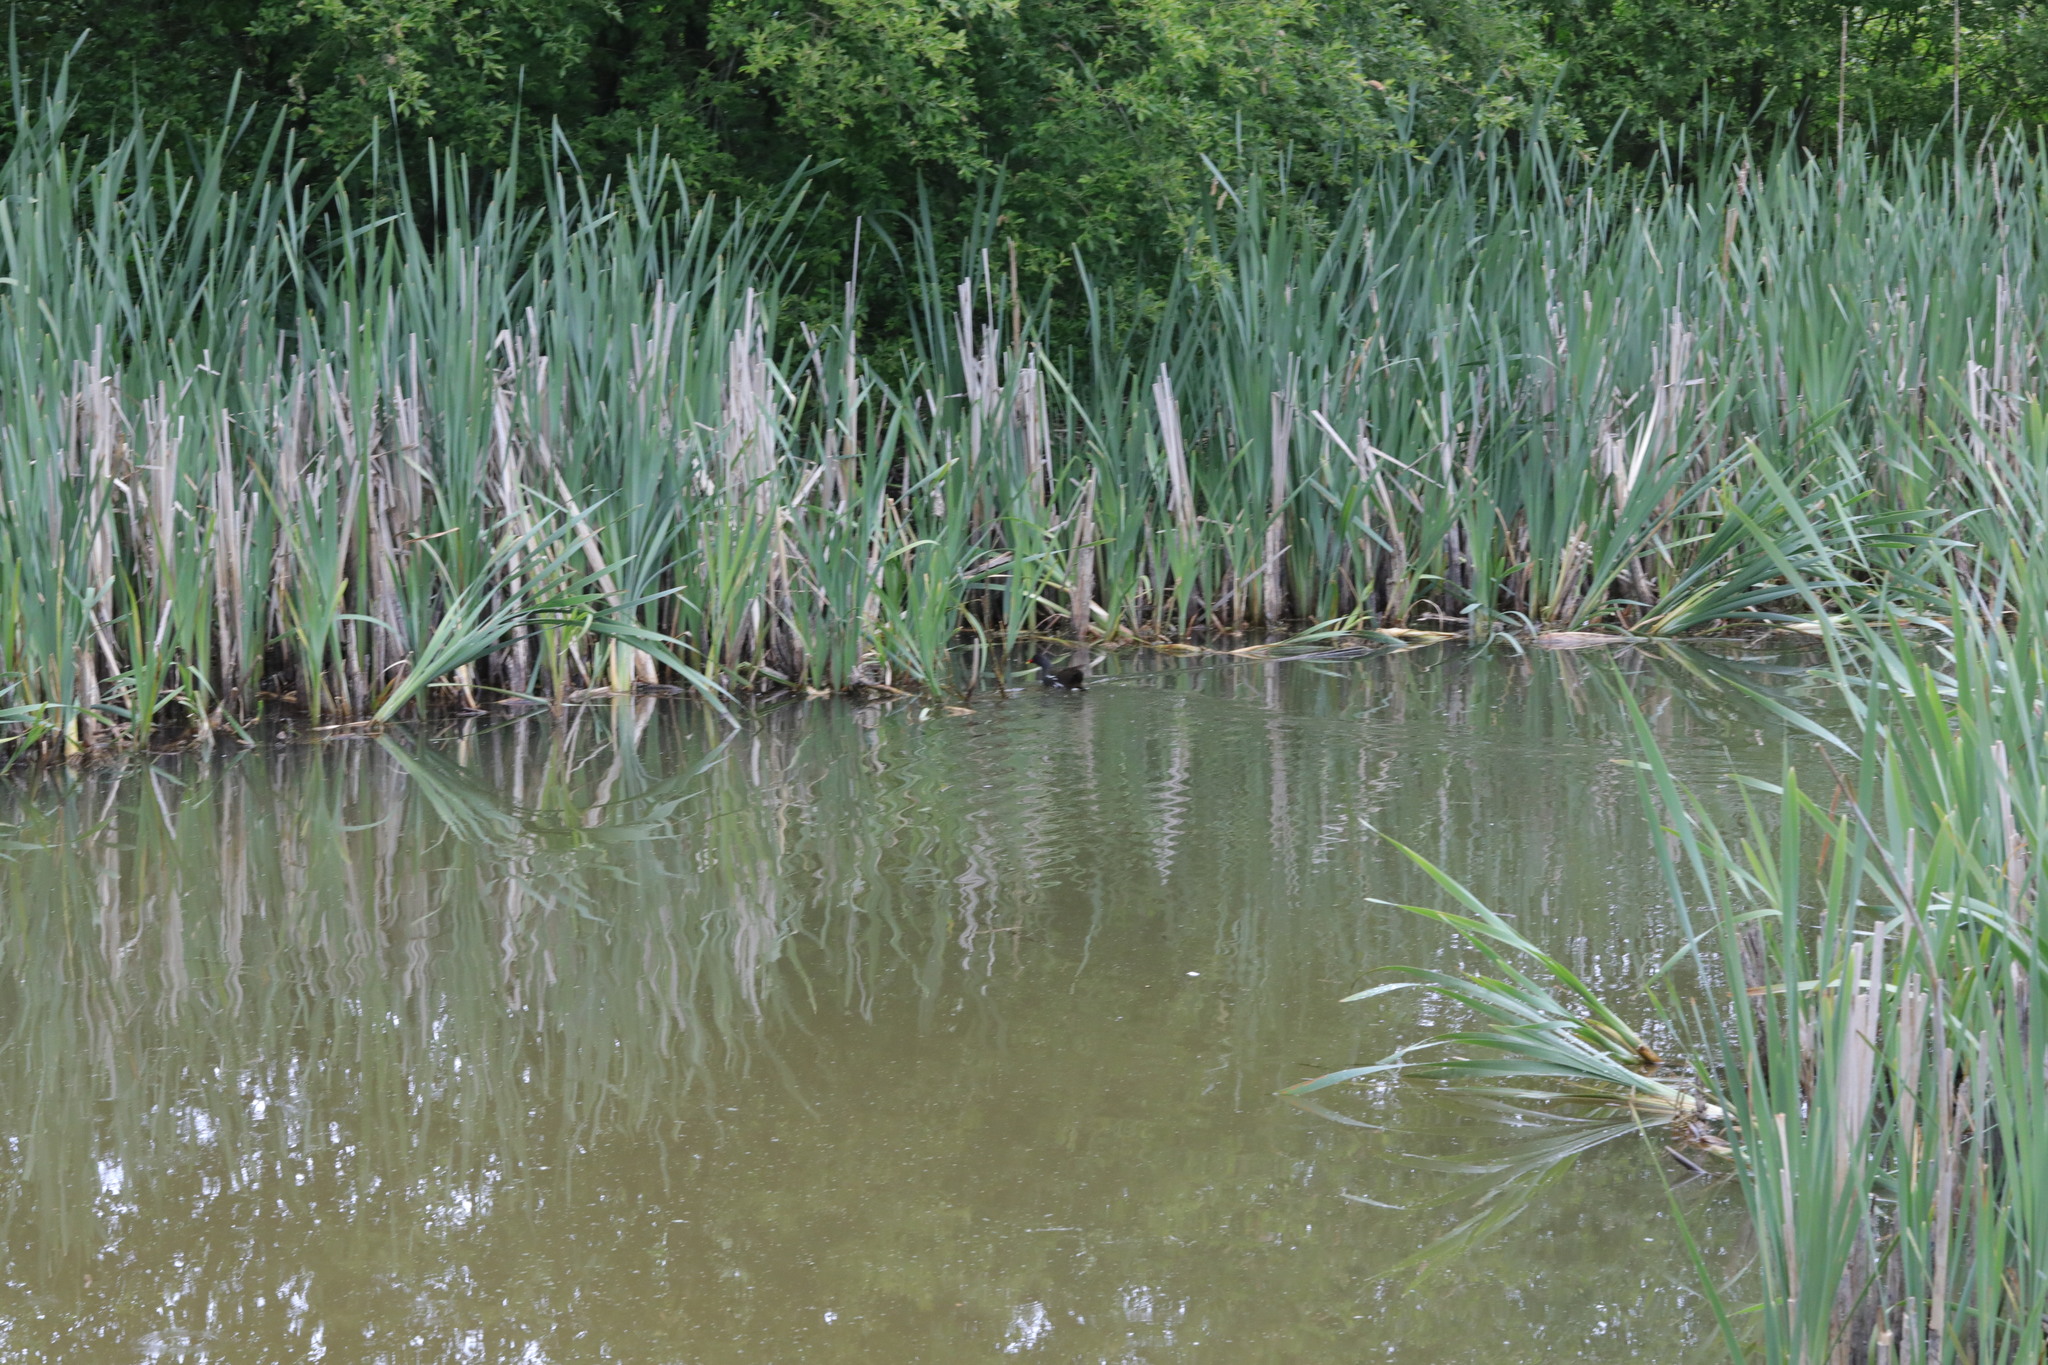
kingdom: Animalia
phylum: Chordata
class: Aves
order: Gruiformes
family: Rallidae
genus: Gallinula
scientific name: Gallinula chloropus
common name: Common moorhen
